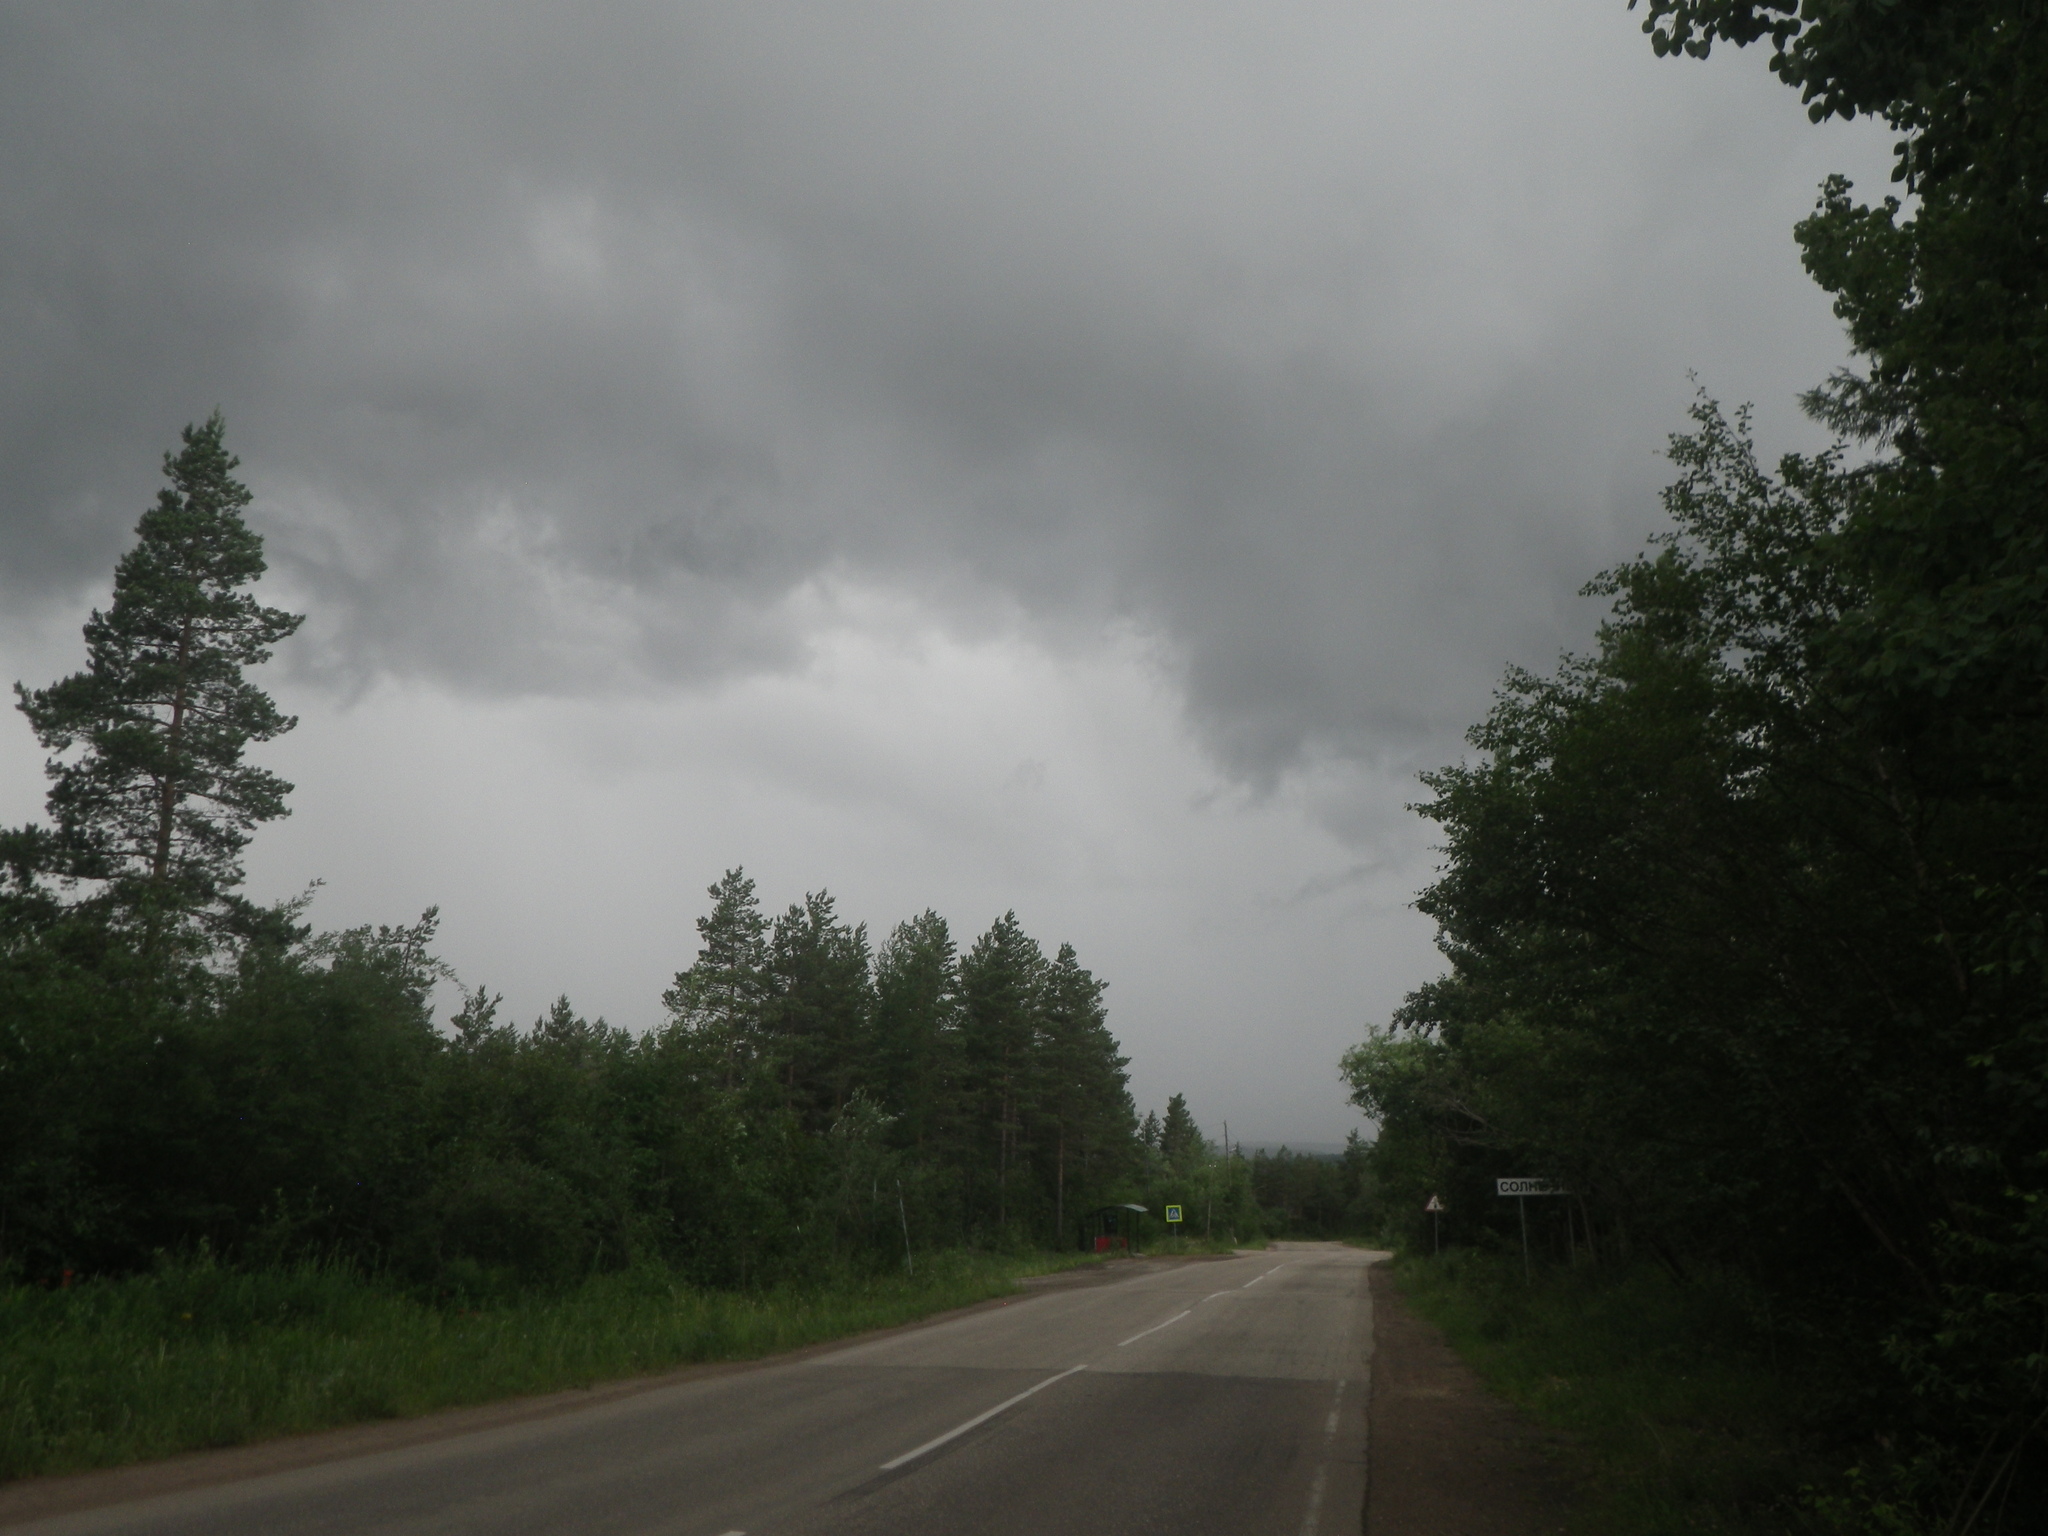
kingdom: Plantae
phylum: Tracheophyta
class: Pinopsida
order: Pinales
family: Pinaceae
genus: Pinus
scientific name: Pinus sylvestris
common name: Scots pine
